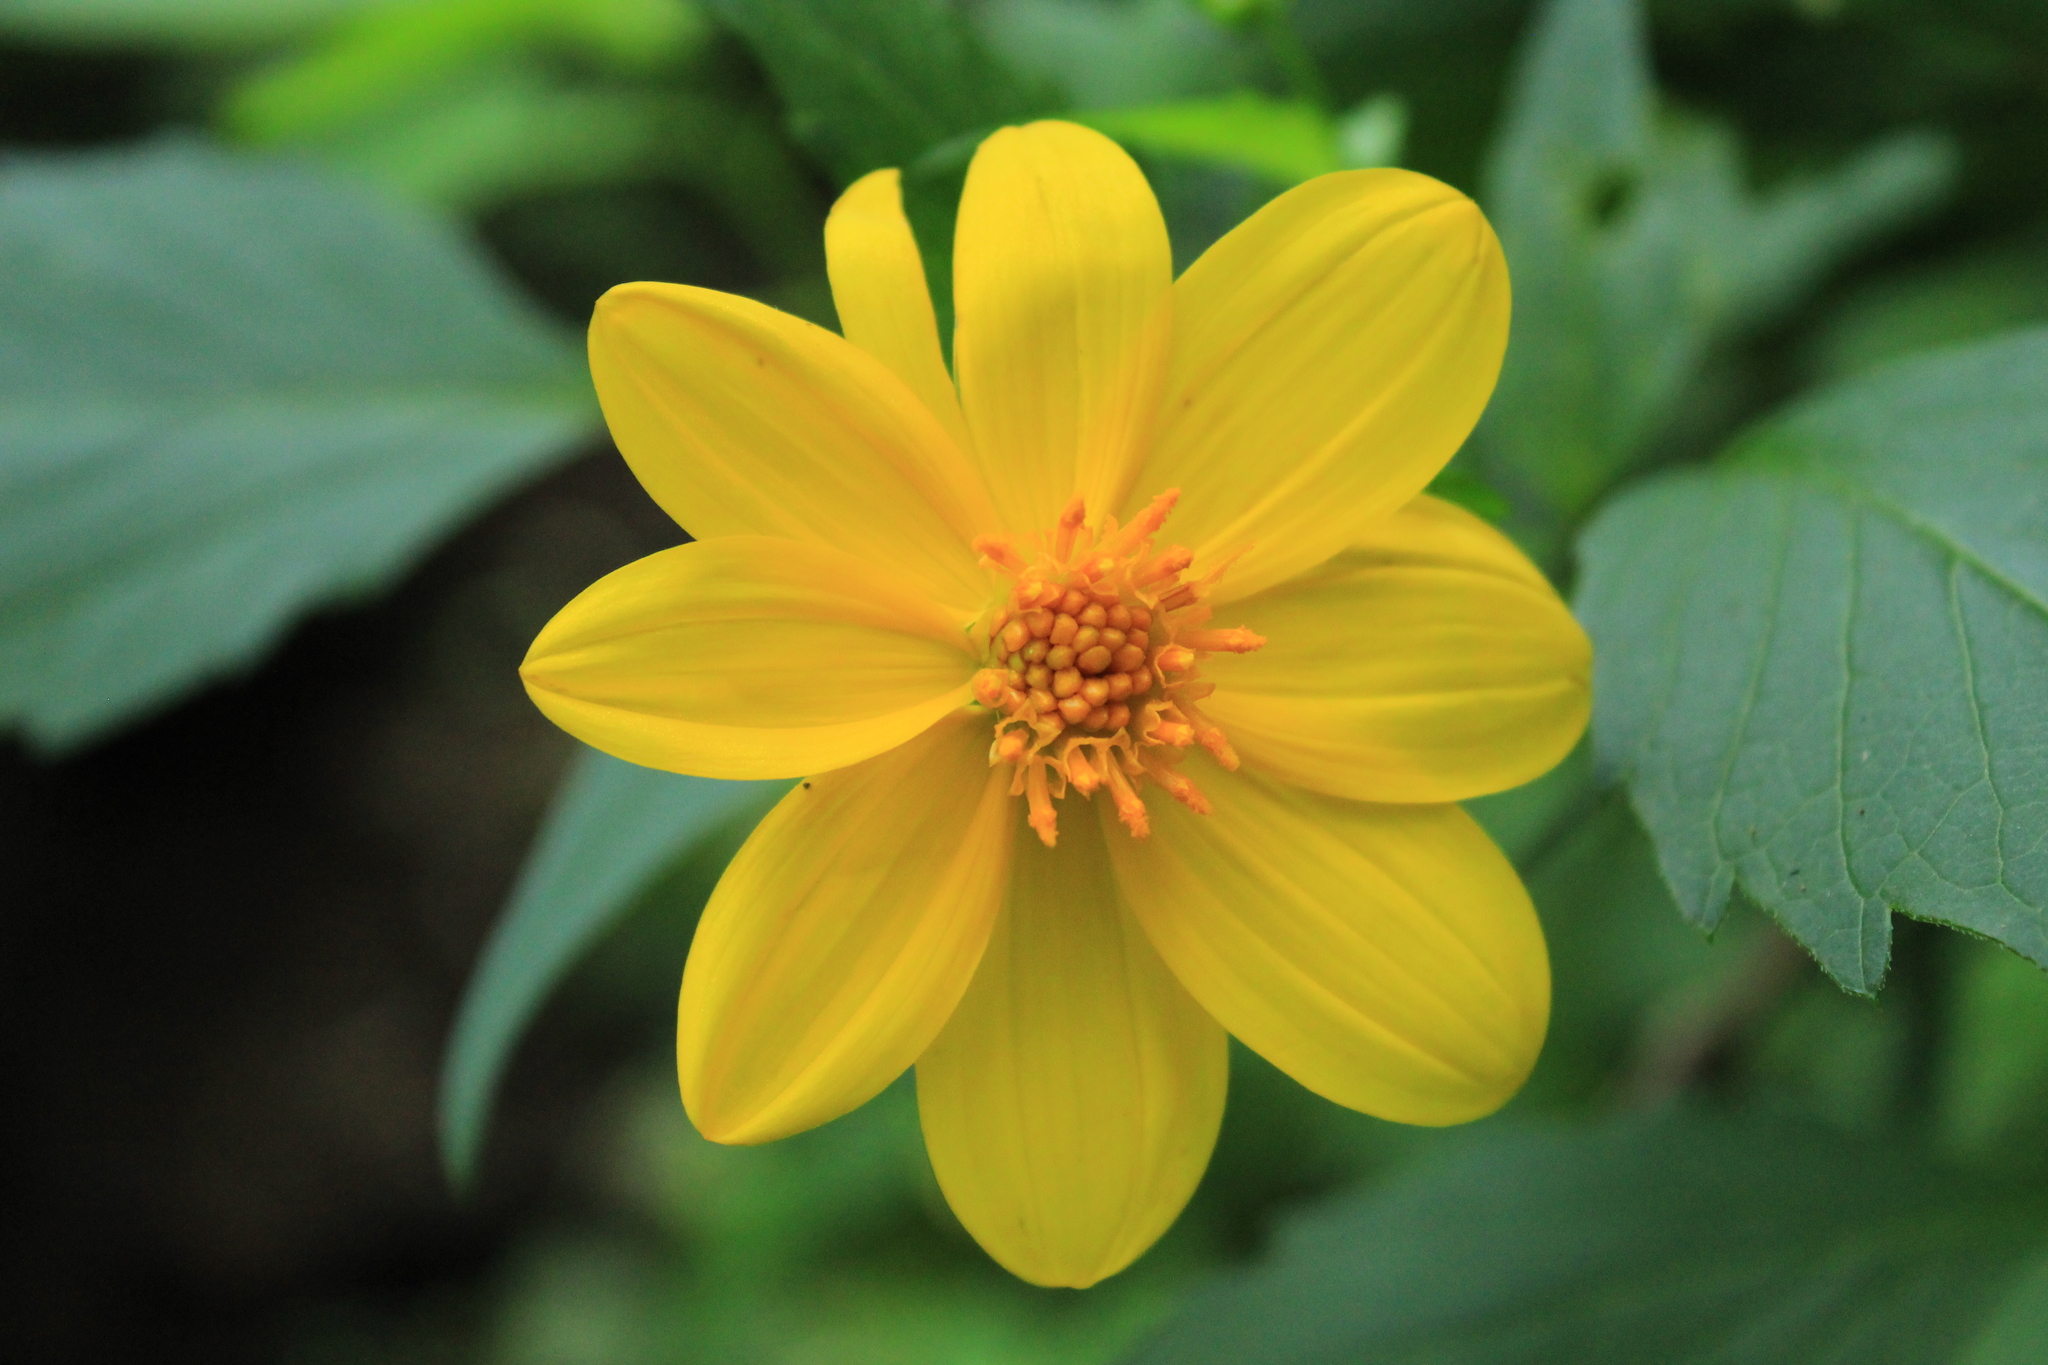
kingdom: Plantae
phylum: Tracheophyta
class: Magnoliopsida
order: Asterales
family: Asteraceae
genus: Dahlia
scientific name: Dahlia coccinea
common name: Red dahlia
